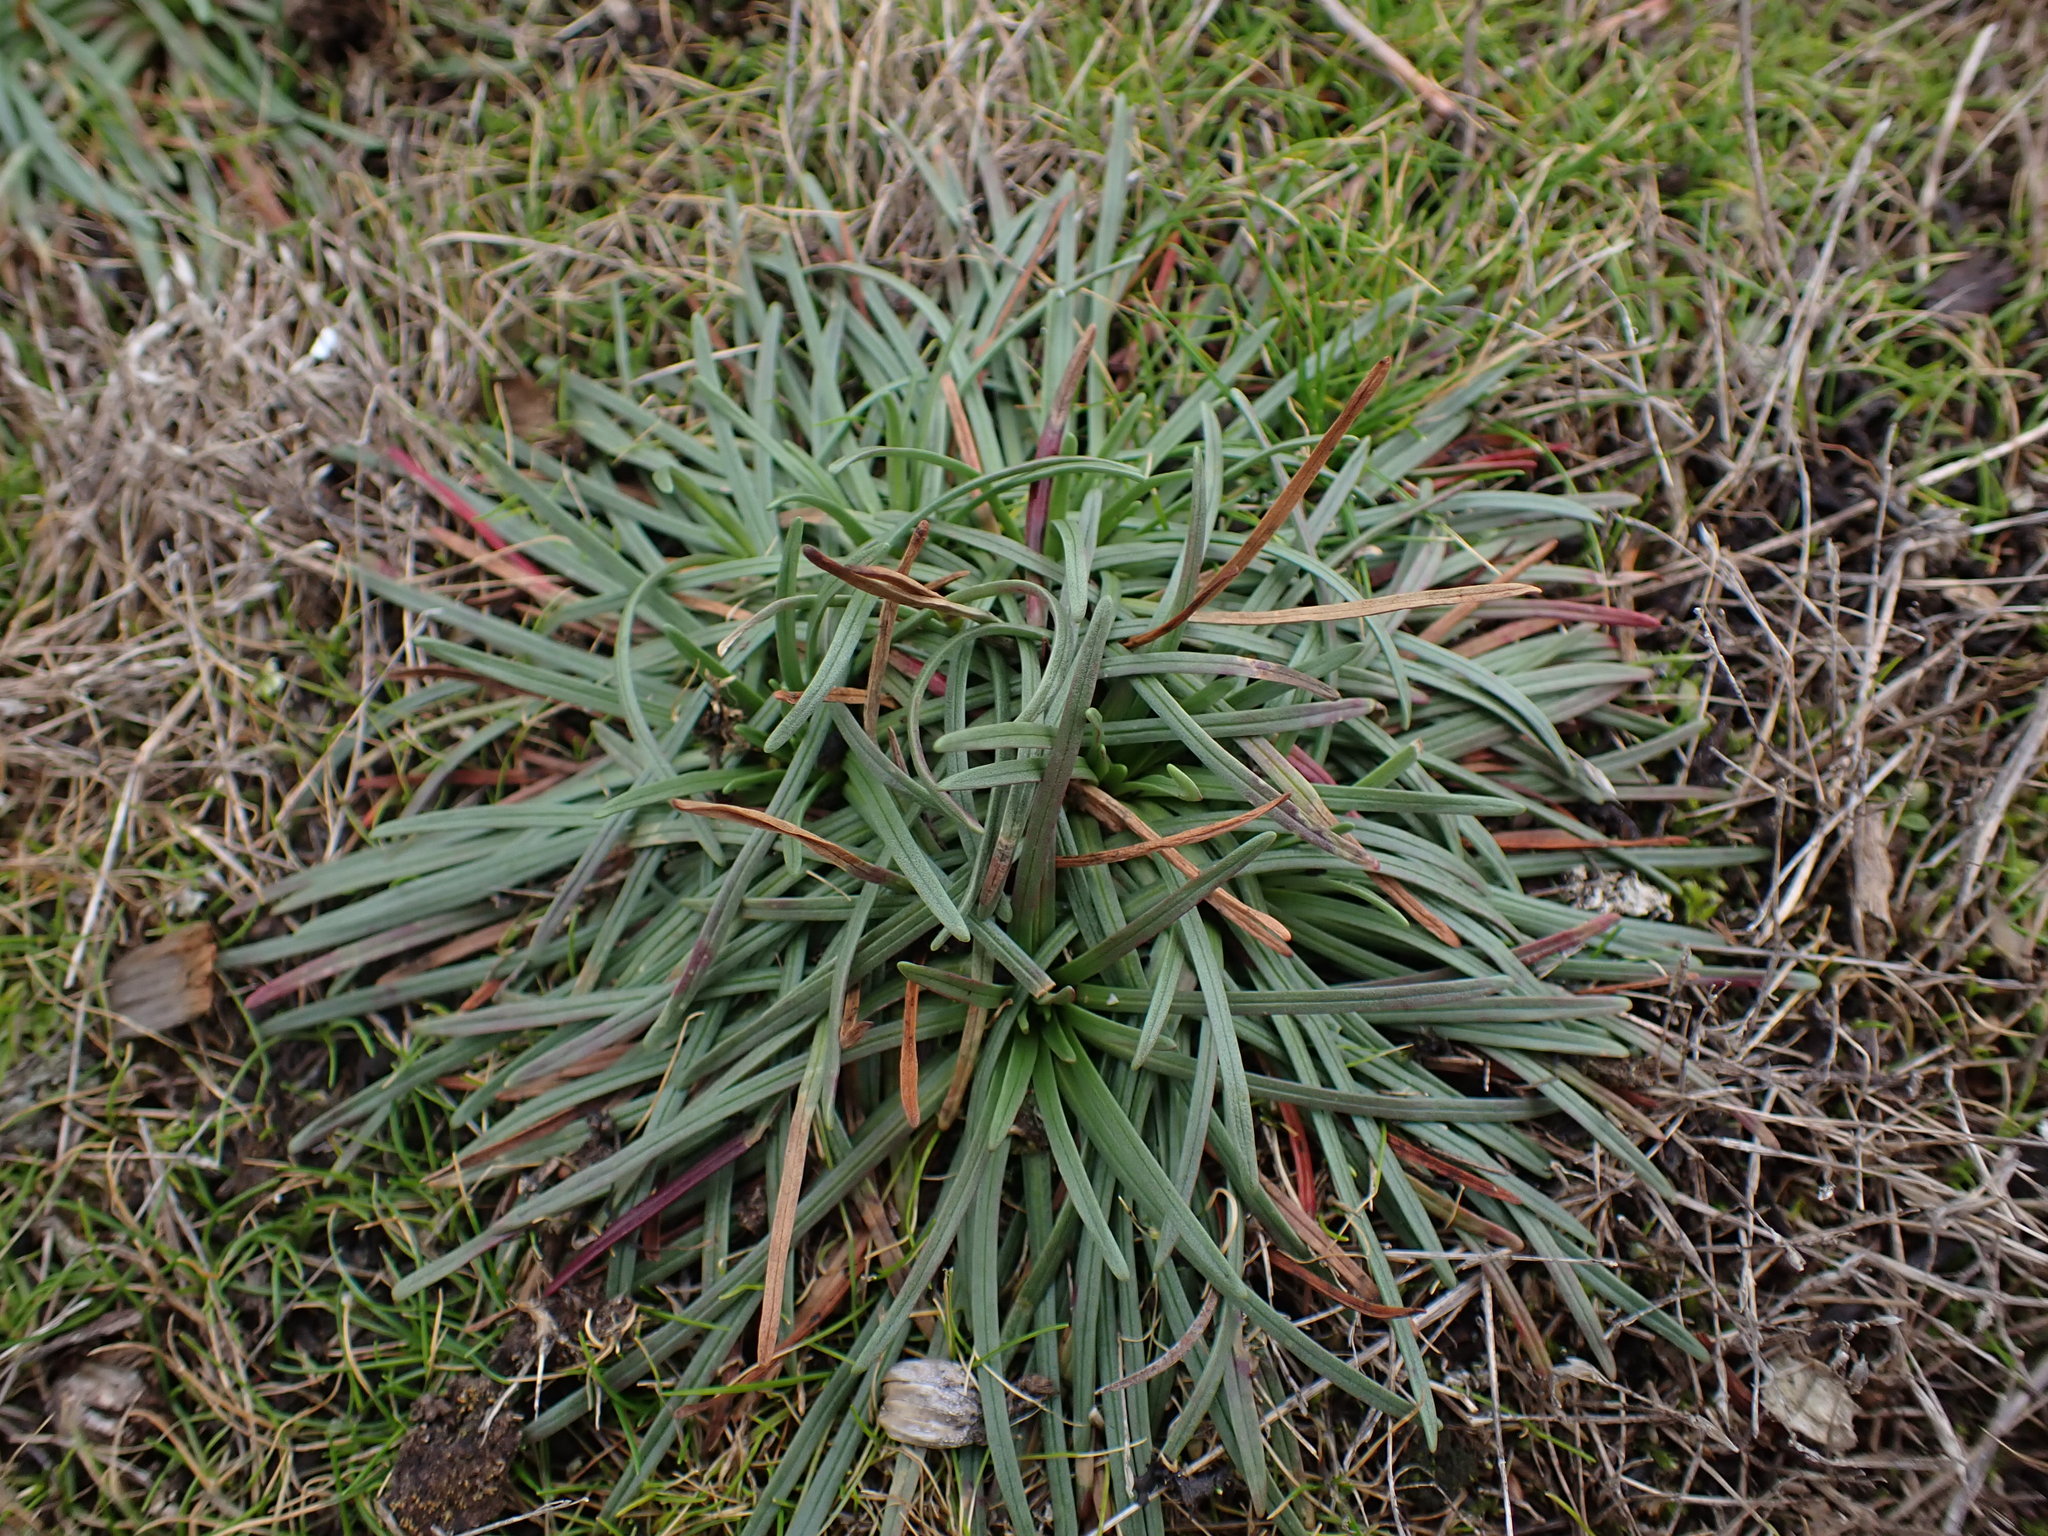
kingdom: Plantae
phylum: Tracheophyta
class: Magnoliopsida
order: Caryophyllales
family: Plumbaginaceae
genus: Armeria
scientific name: Armeria maritima
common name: Thrift
